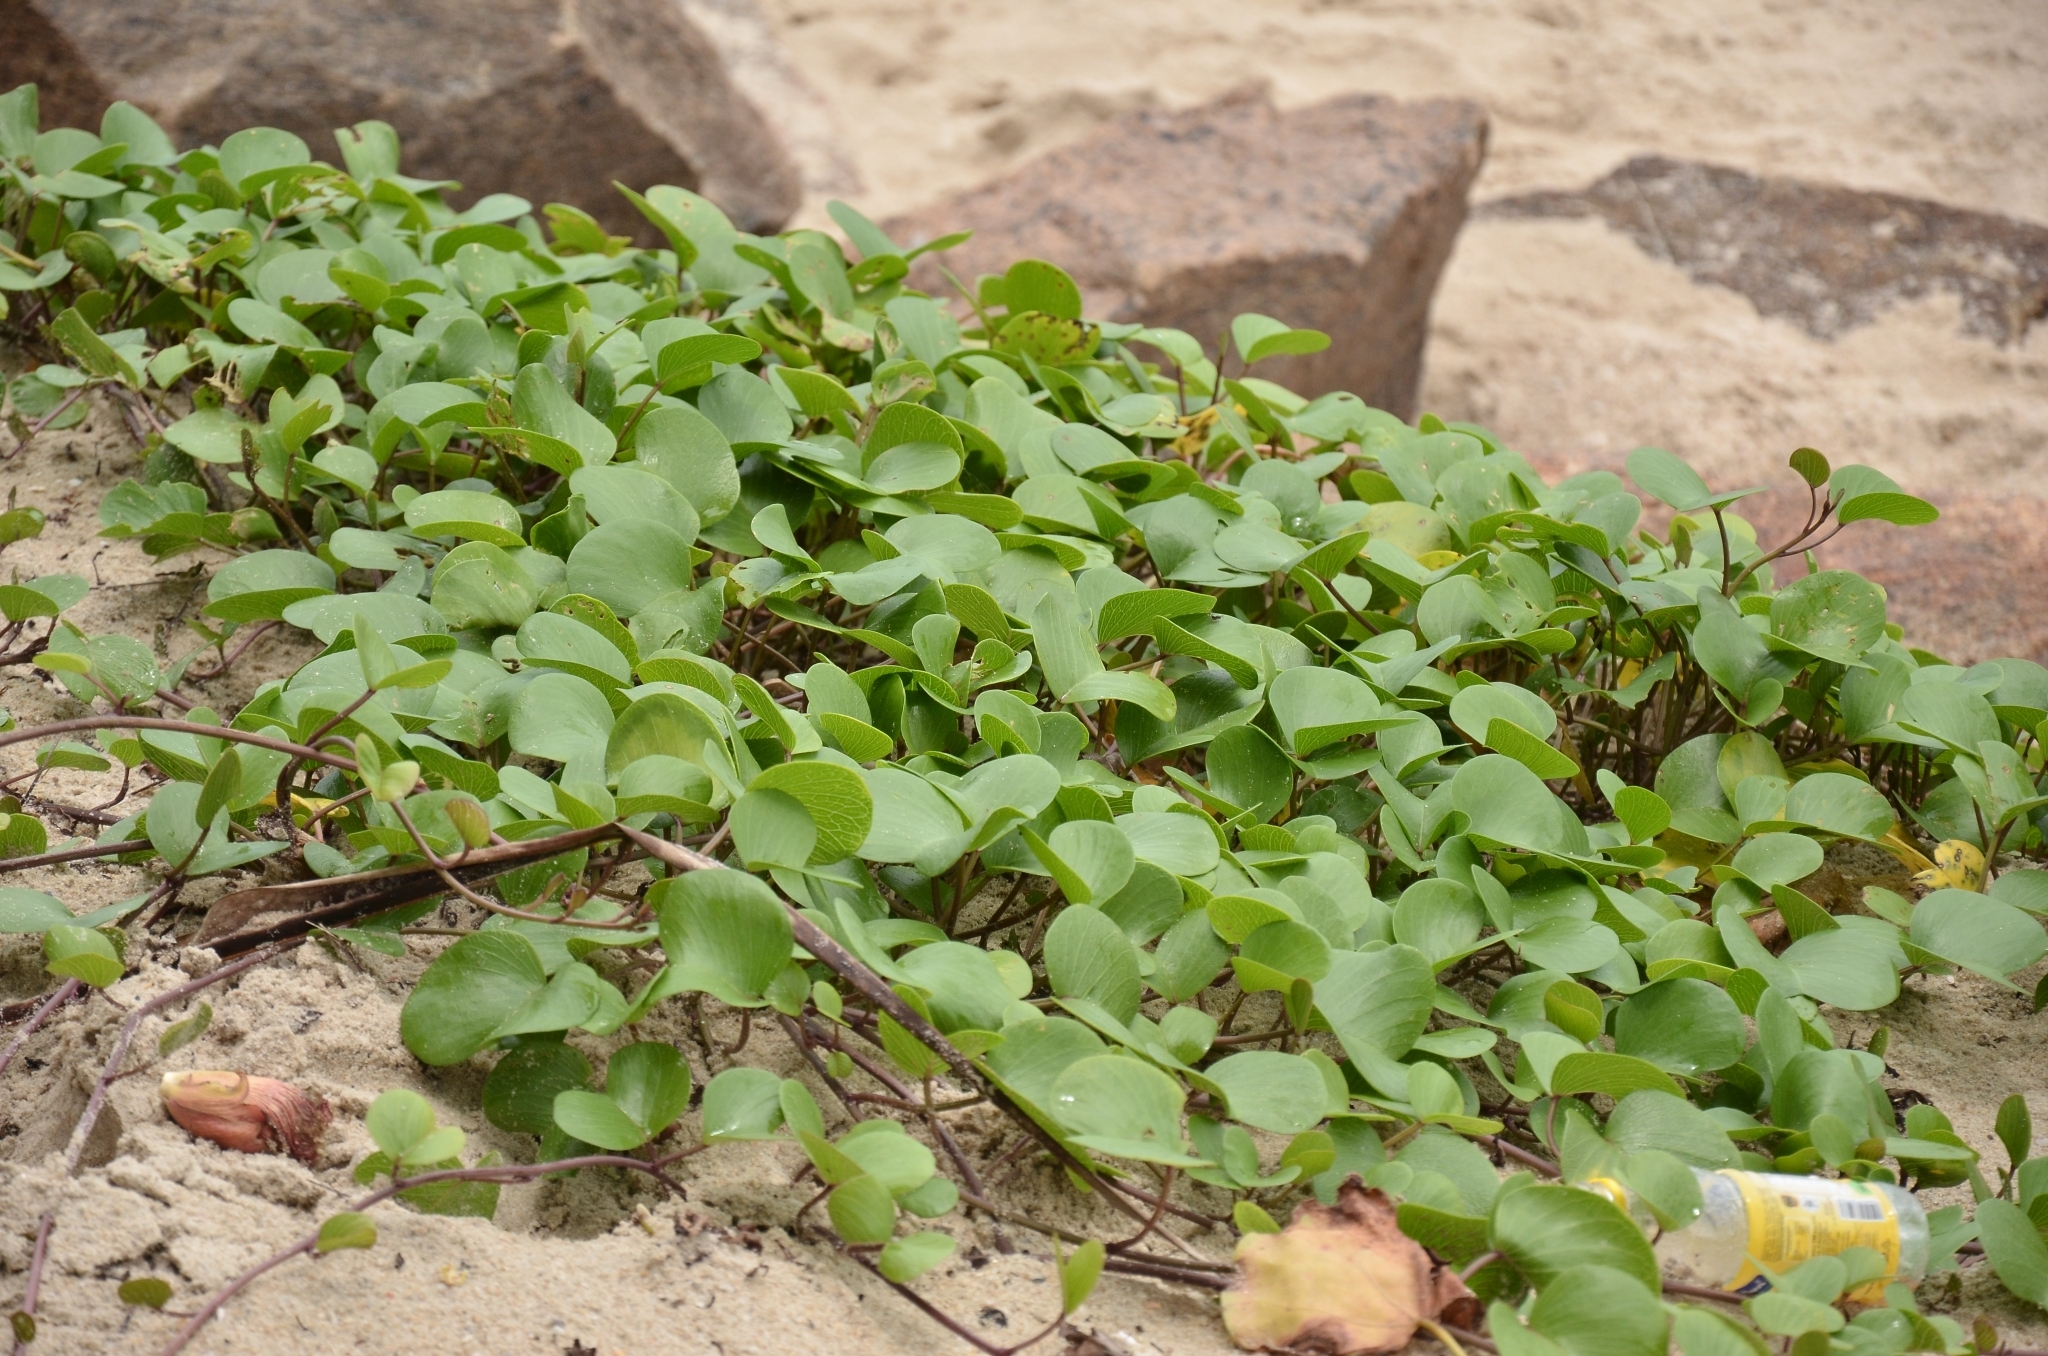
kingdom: Plantae
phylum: Tracheophyta
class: Magnoliopsida
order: Solanales
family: Convolvulaceae
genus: Ipomoea
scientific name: Ipomoea pes-caprae
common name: Beach morning glory
